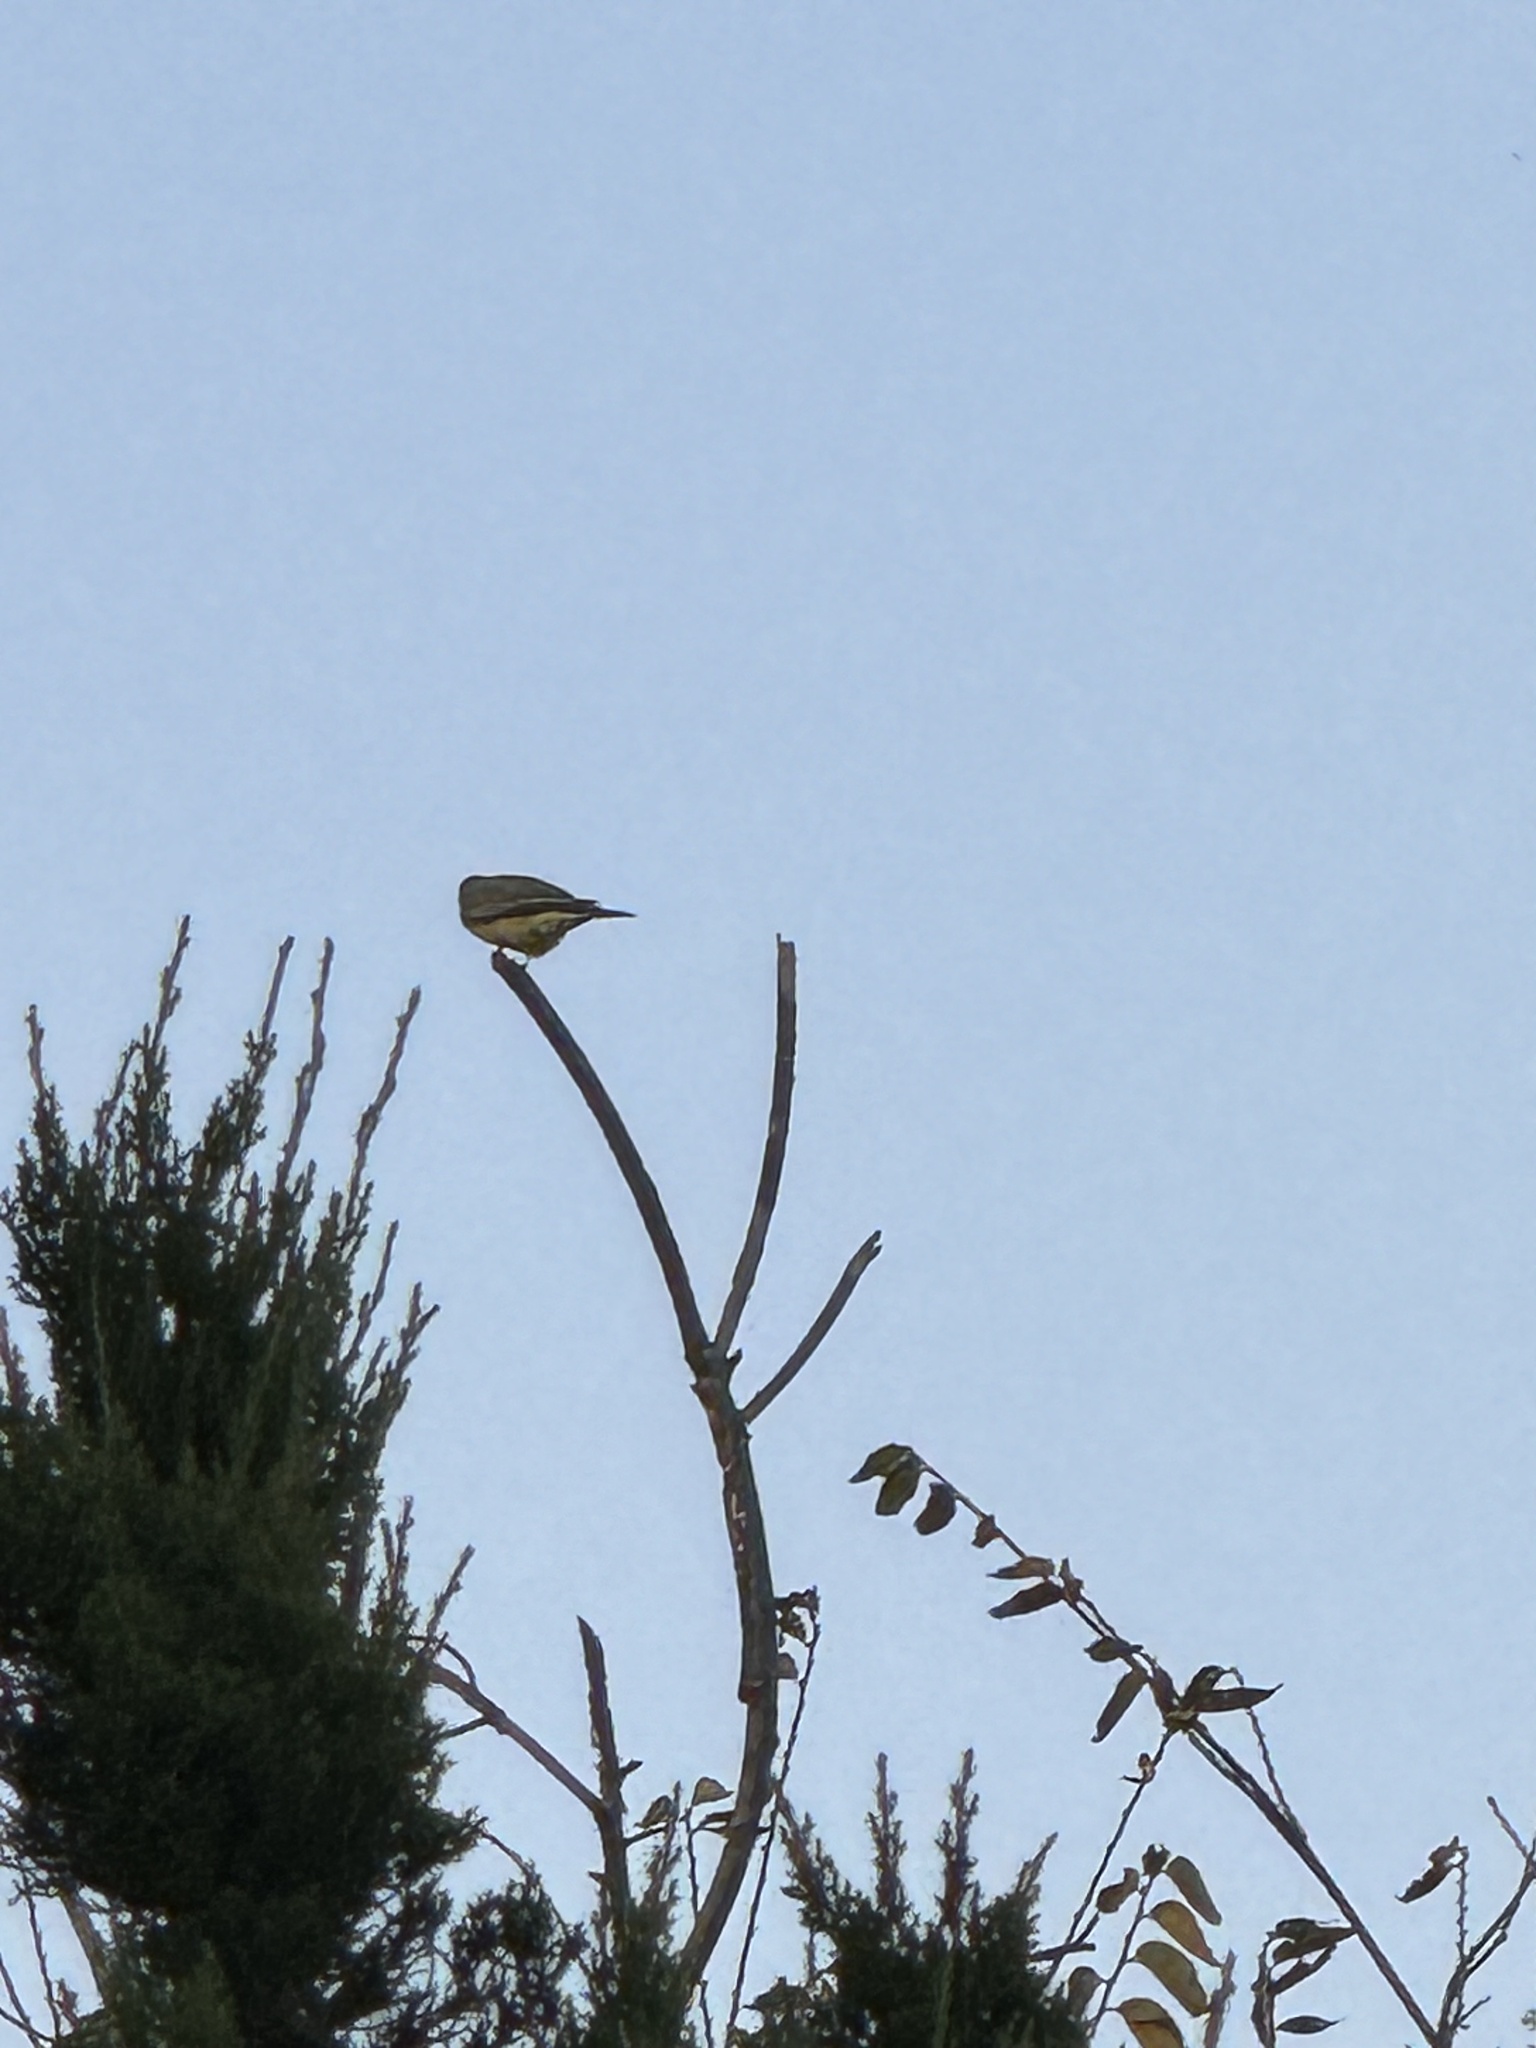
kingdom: Animalia
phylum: Chordata
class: Aves
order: Passeriformes
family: Tyrannidae
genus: Tyrannus
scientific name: Tyrannus vociferans
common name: Cassin's kingbird
